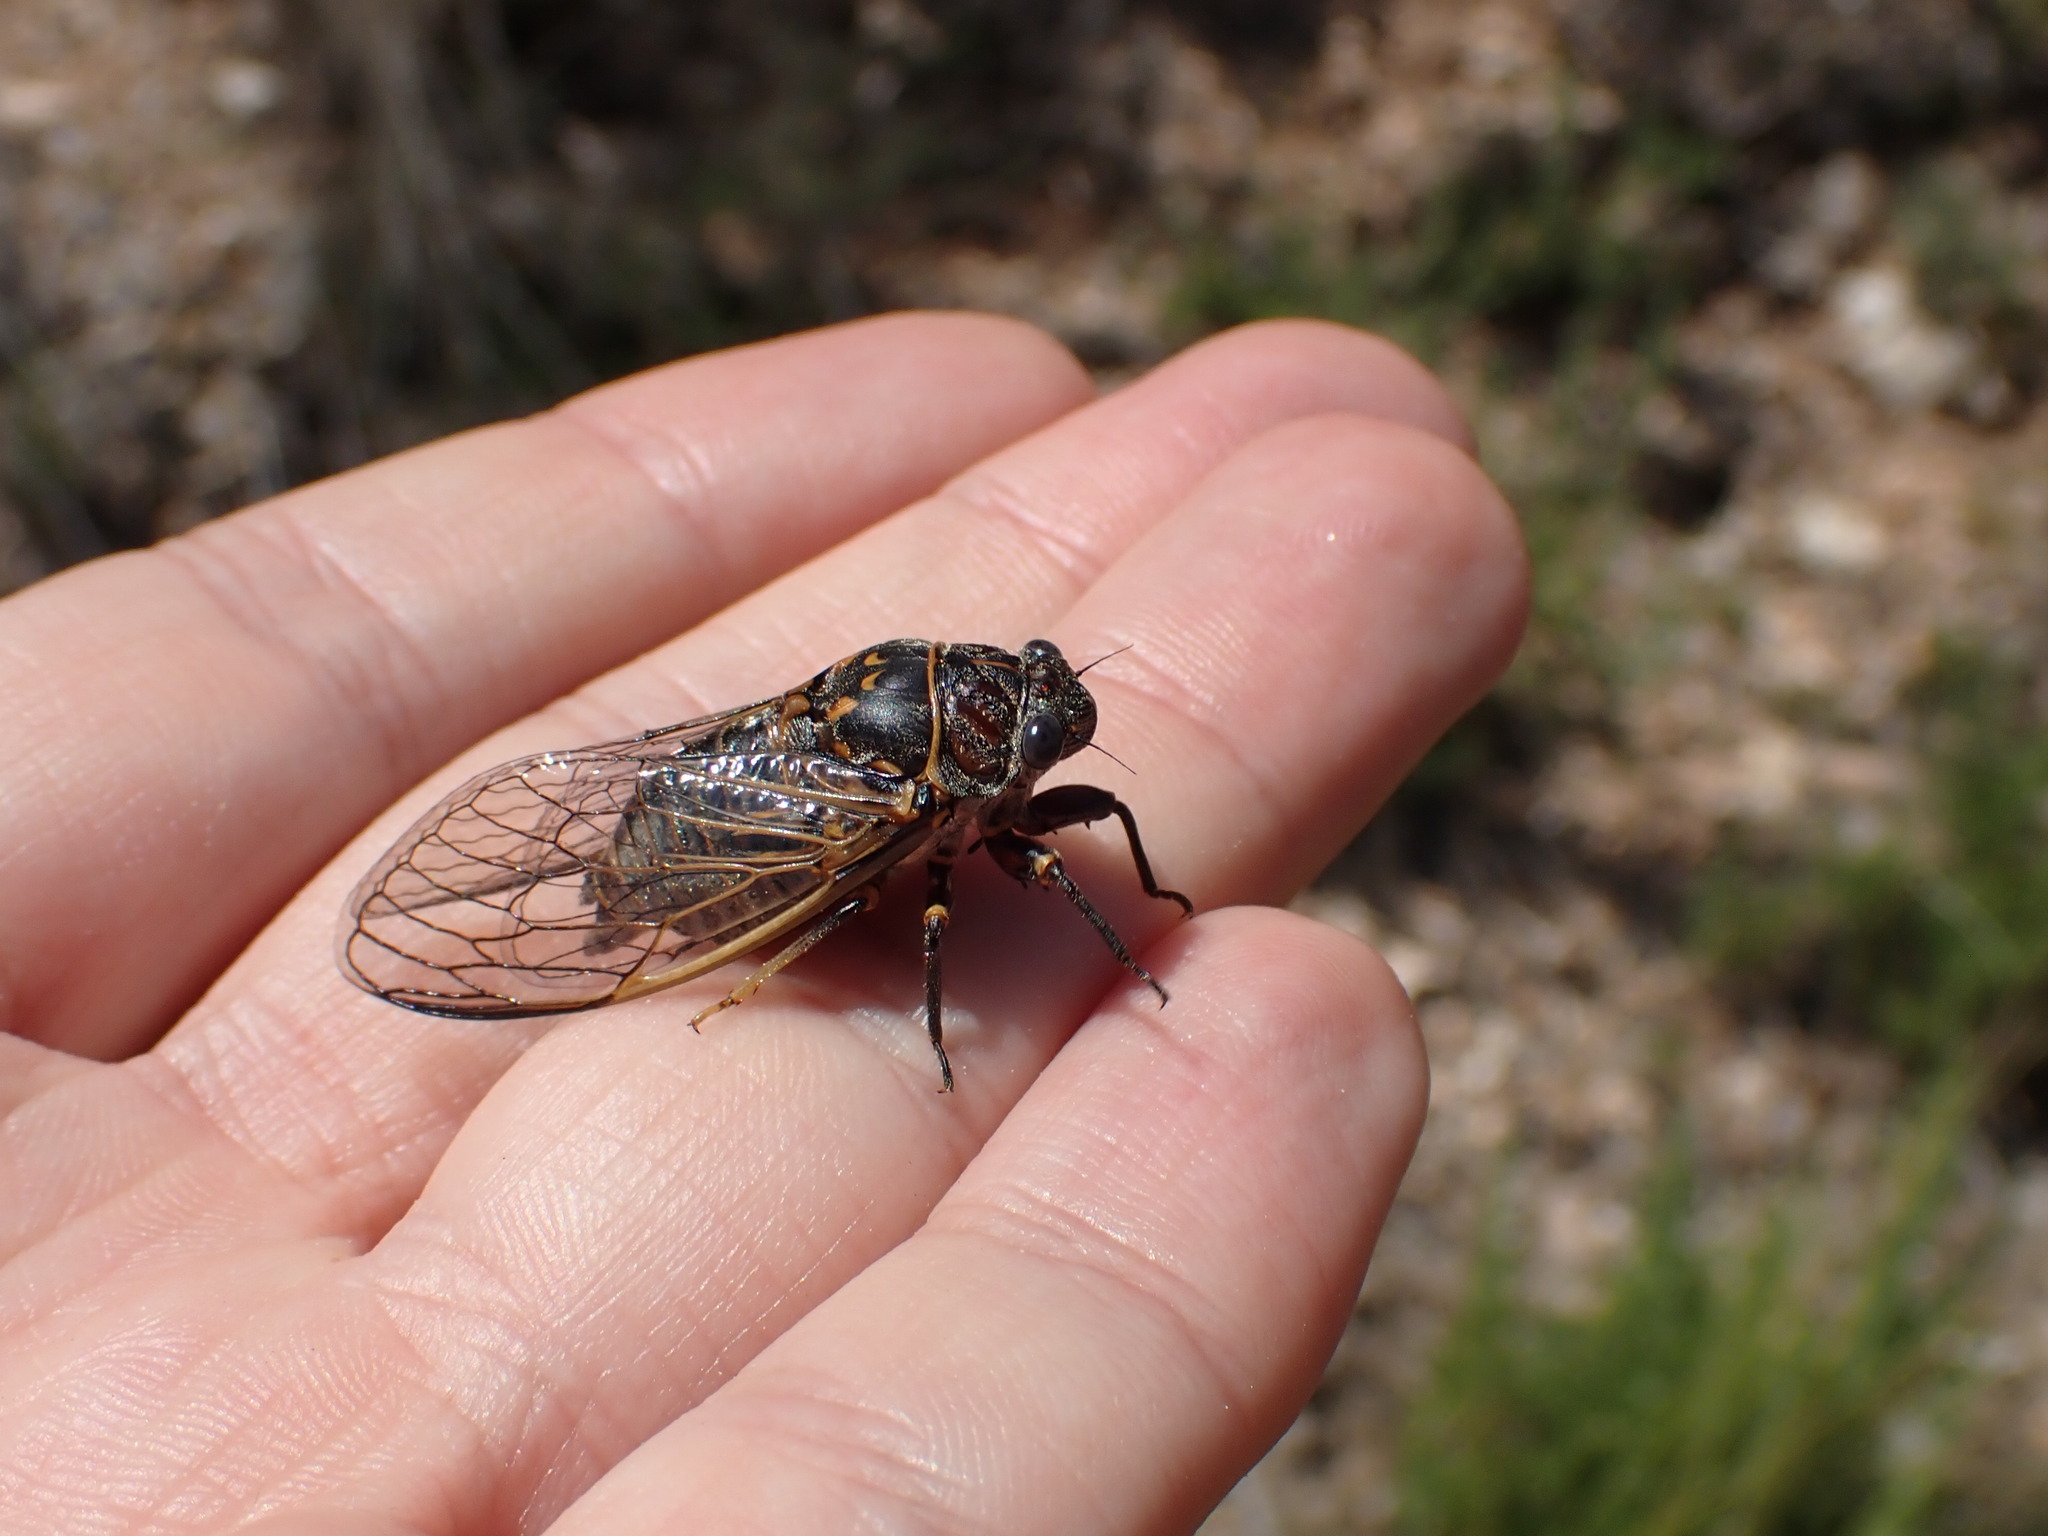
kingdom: Animalia
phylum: Arthropoda
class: Insecta
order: Hemiptera
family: Cicadidae
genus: Tibicina
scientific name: Tibicina garricola
